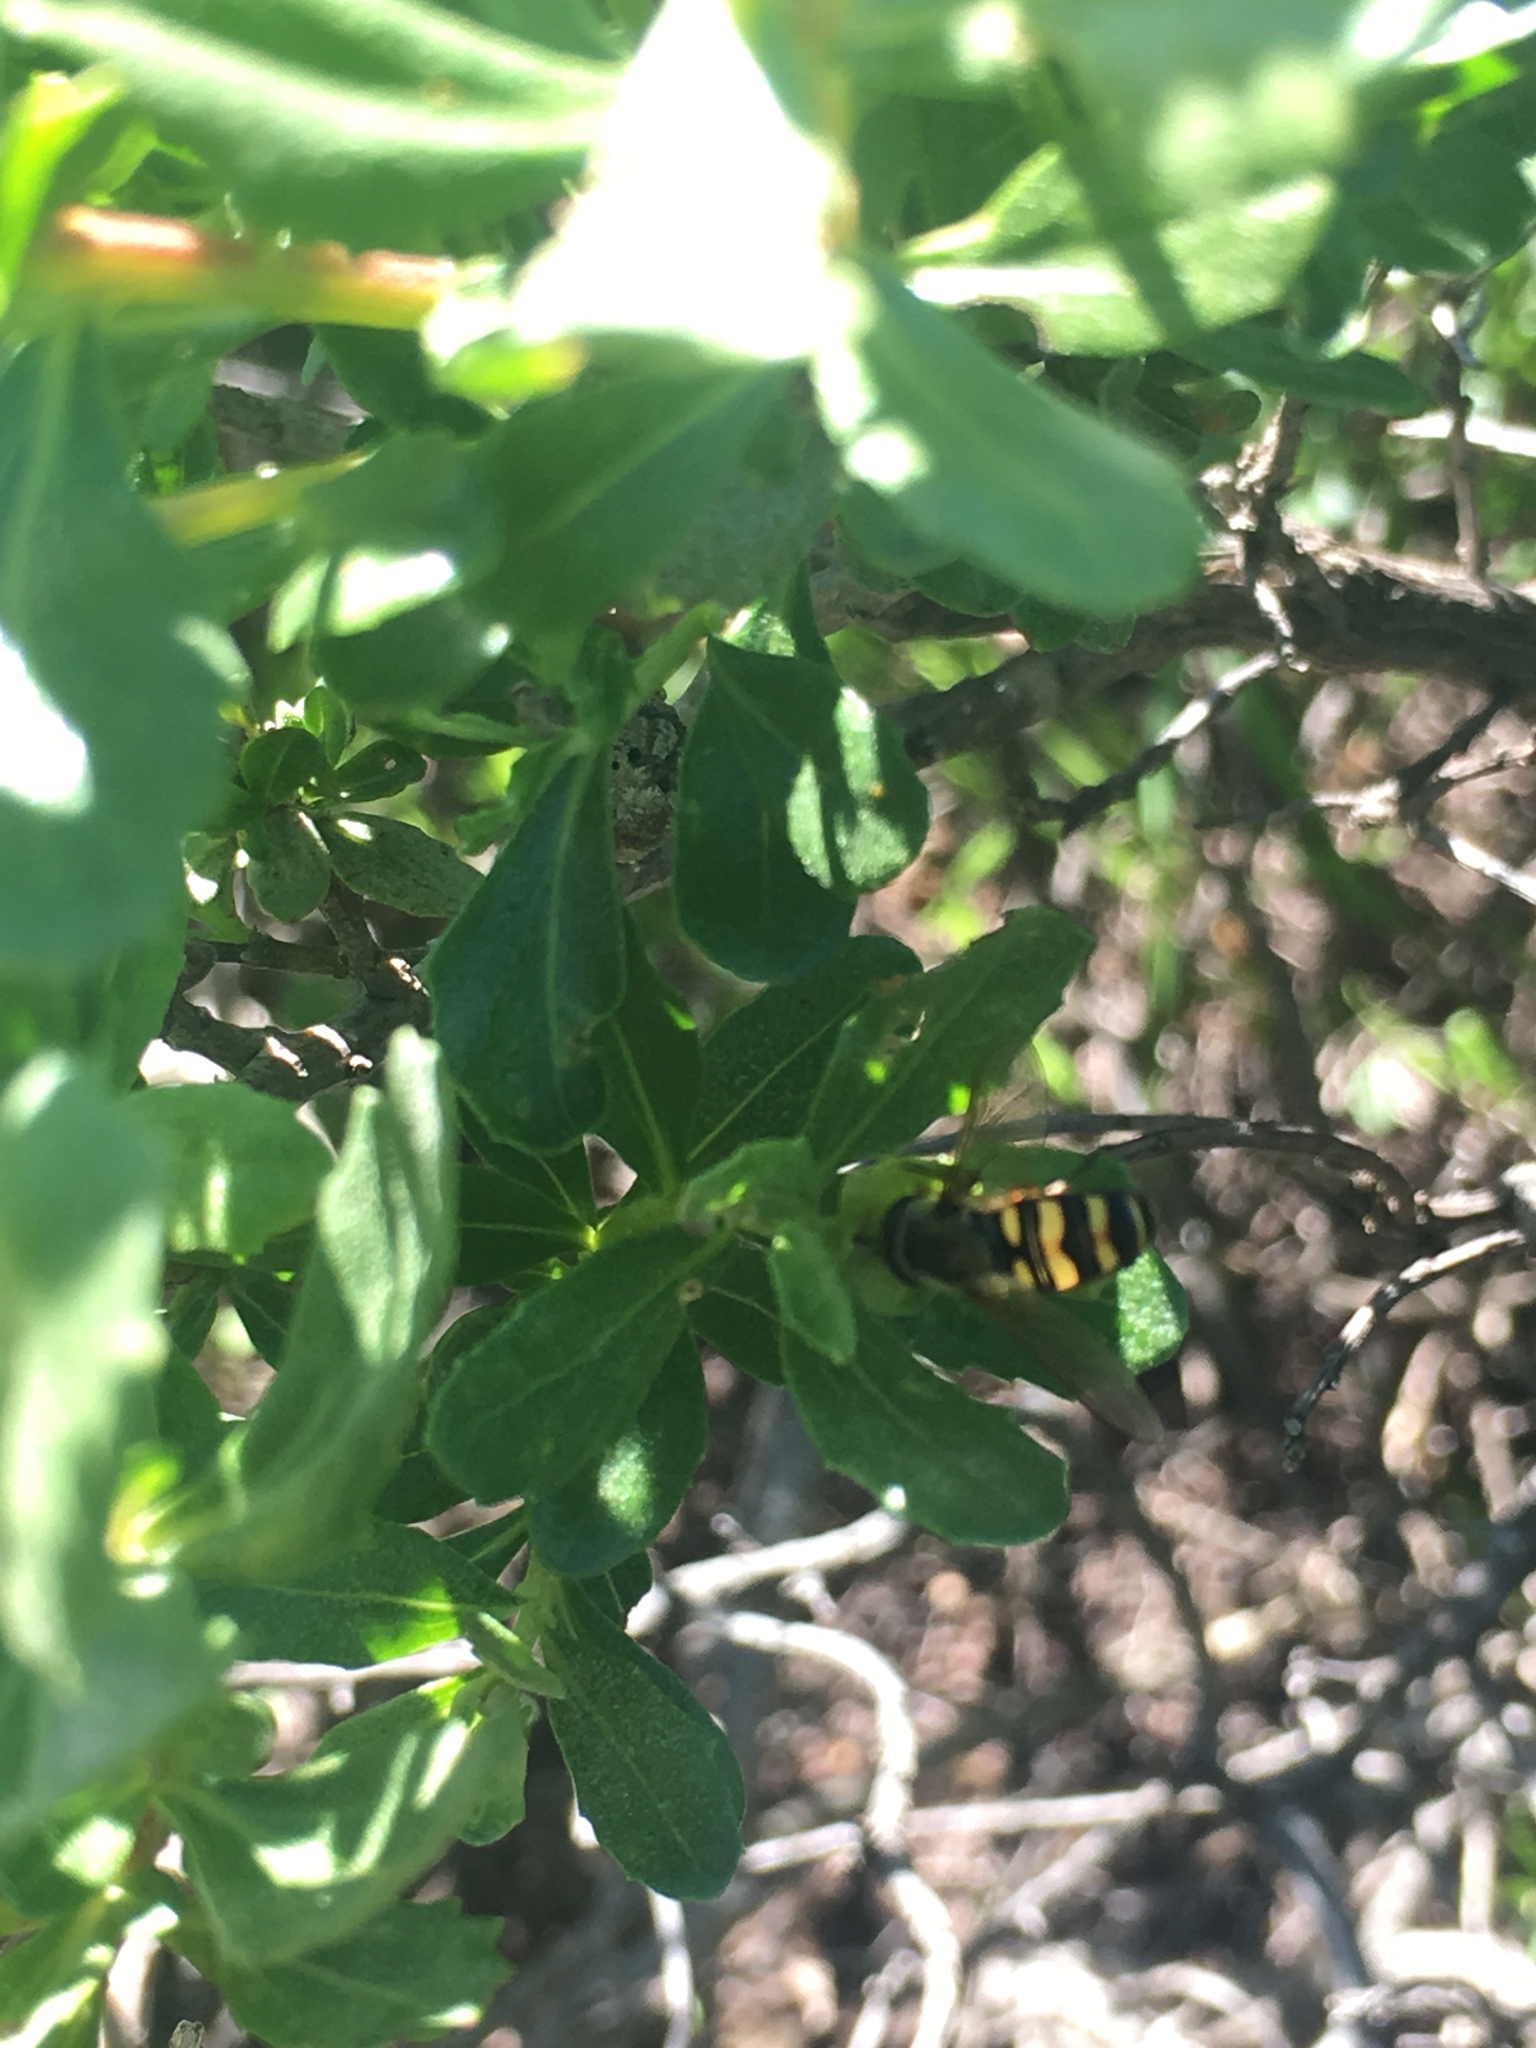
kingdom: Animalia
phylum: Arthropoda
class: Insecta
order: Diptera
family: Syrphidae
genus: Eupeodes
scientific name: Eupeodes fumipennis
